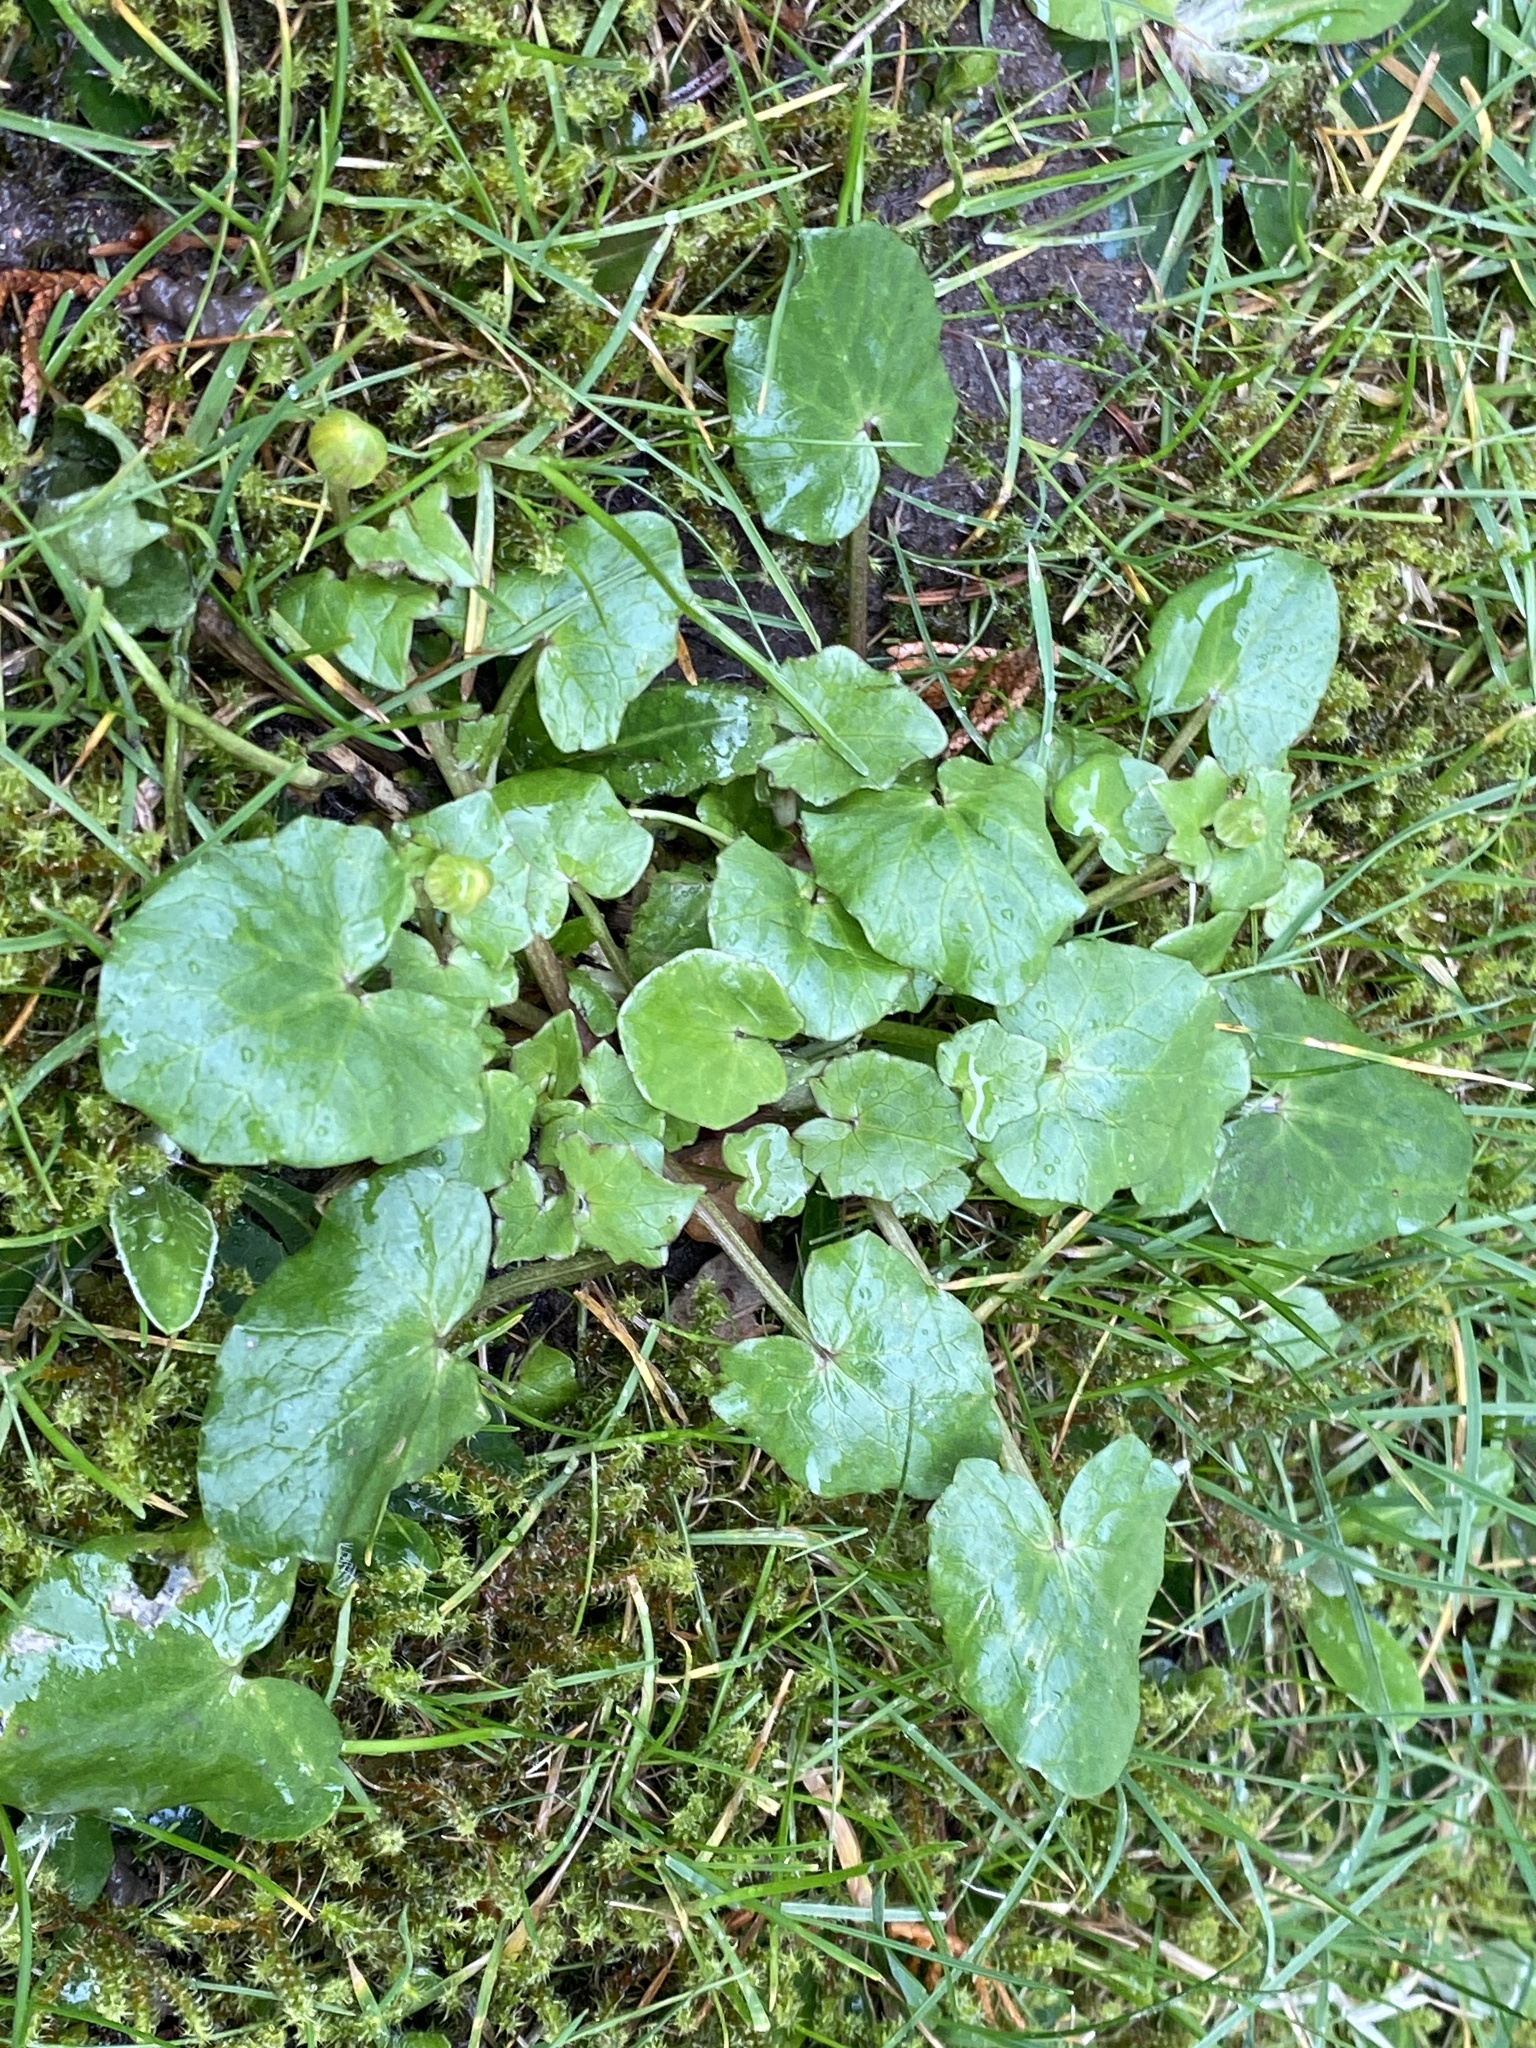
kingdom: Plantae
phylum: Tracheophyta
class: Magnoliopsida
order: Ranunculales
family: Ranunculaceae
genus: Ficaria
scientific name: Ficaria verna
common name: Lesser celandine
